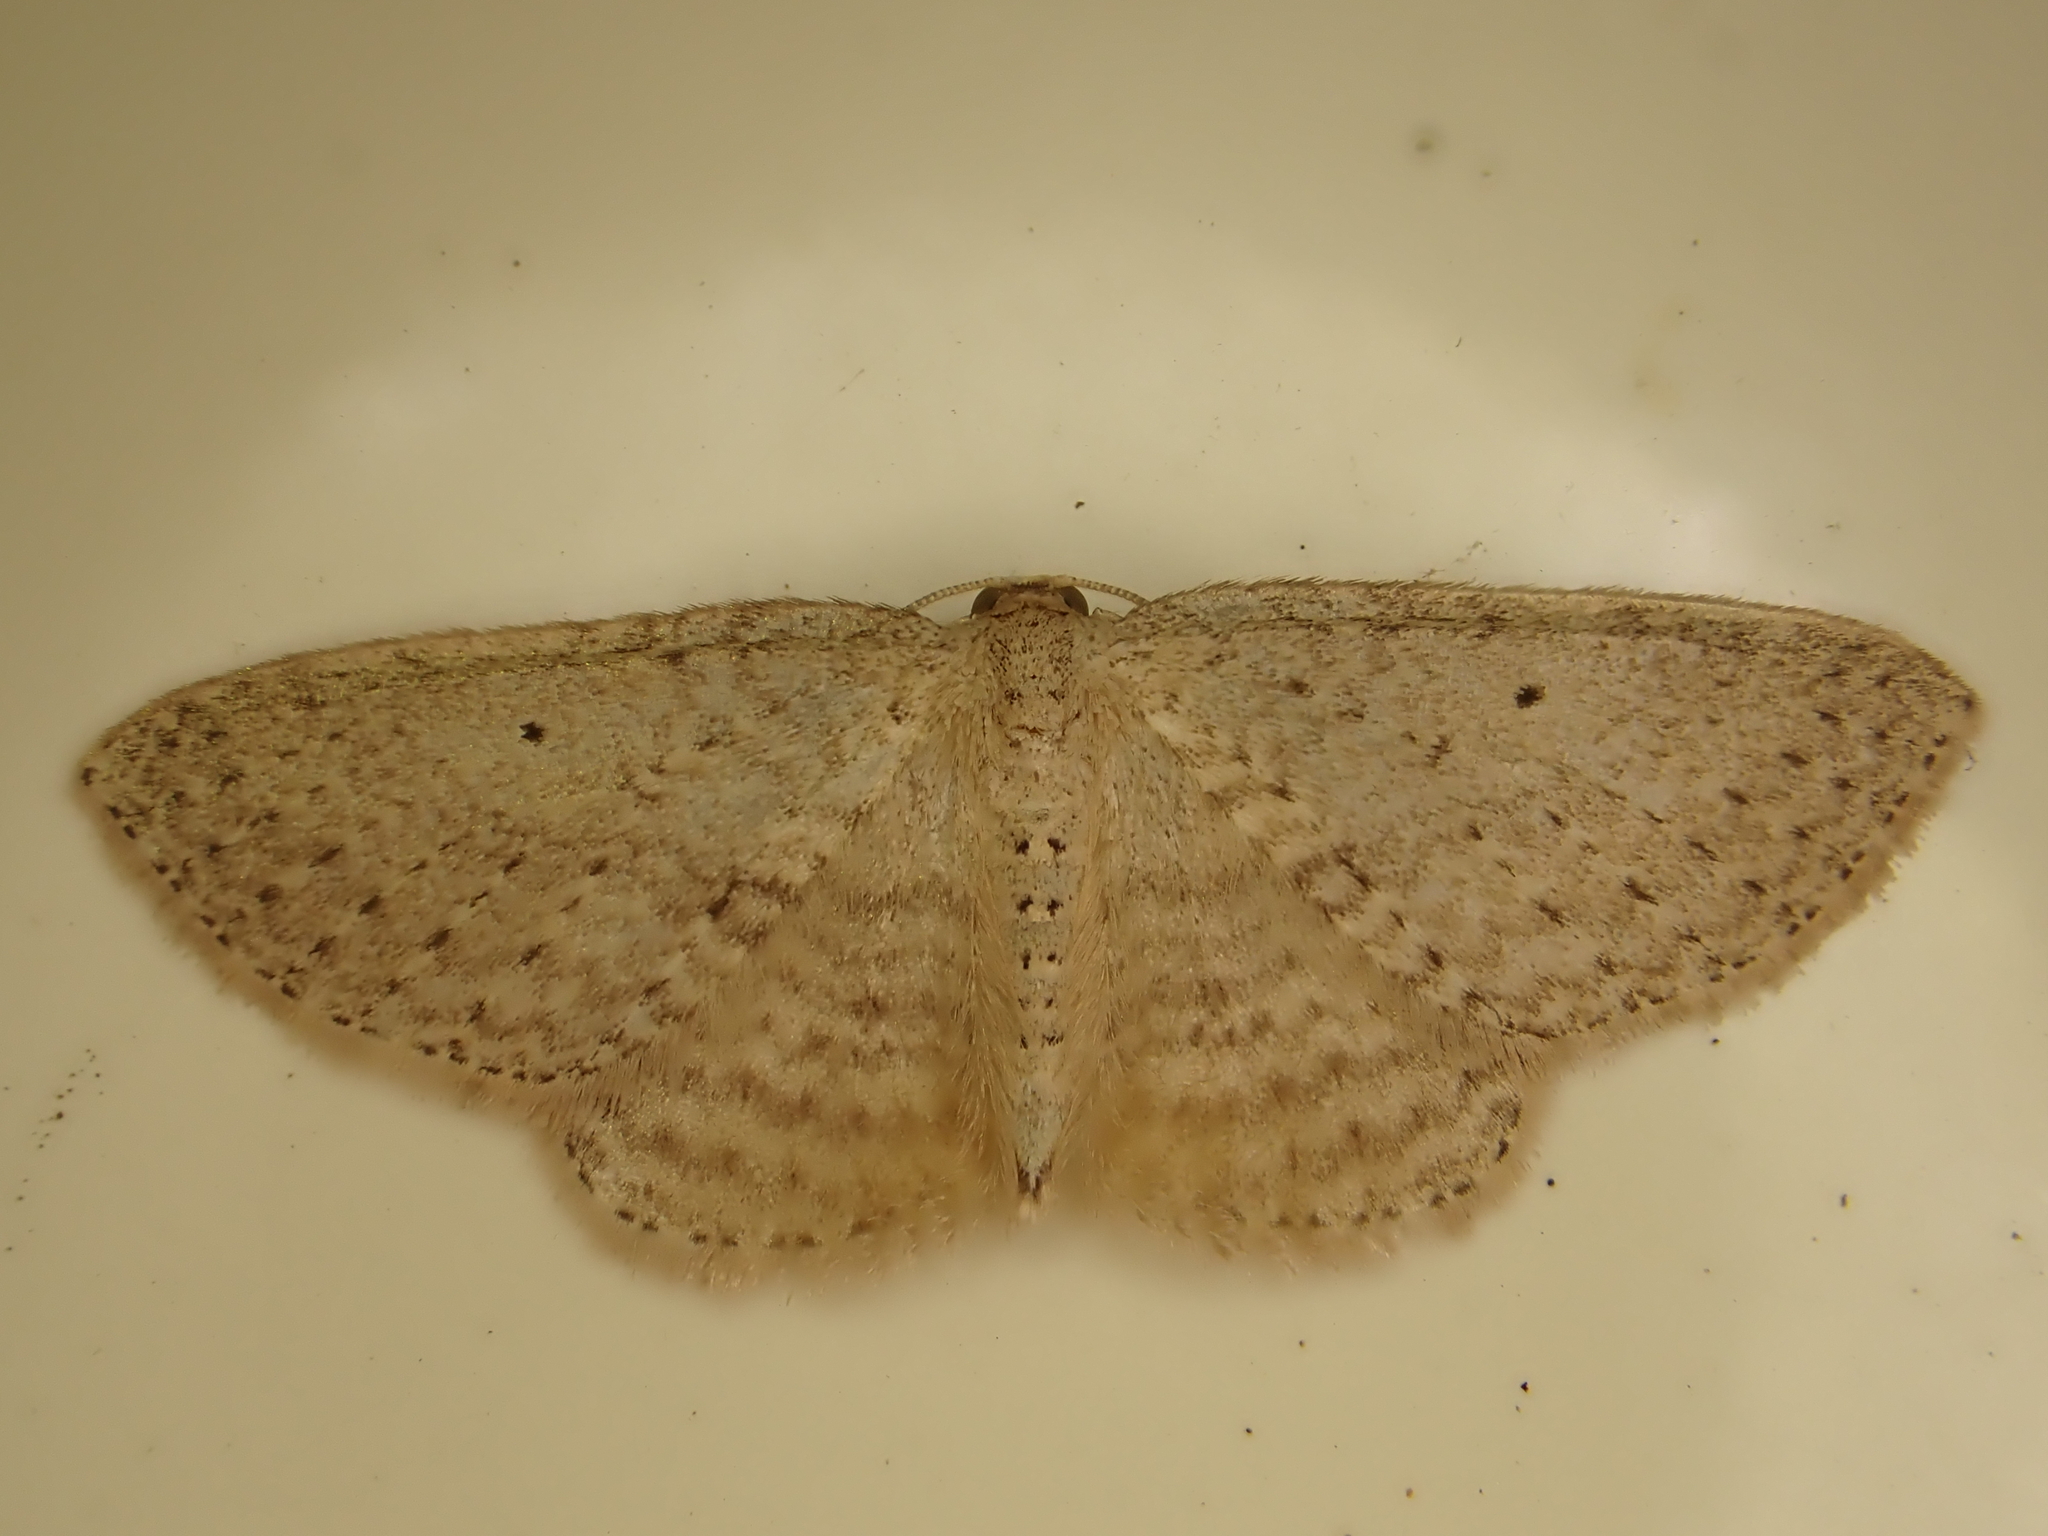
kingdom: Animalia
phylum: Arthropoda
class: Insecta
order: Lepidoptera
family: Geometridae
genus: Poecilasthena
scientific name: Poecilasthena schistaria
